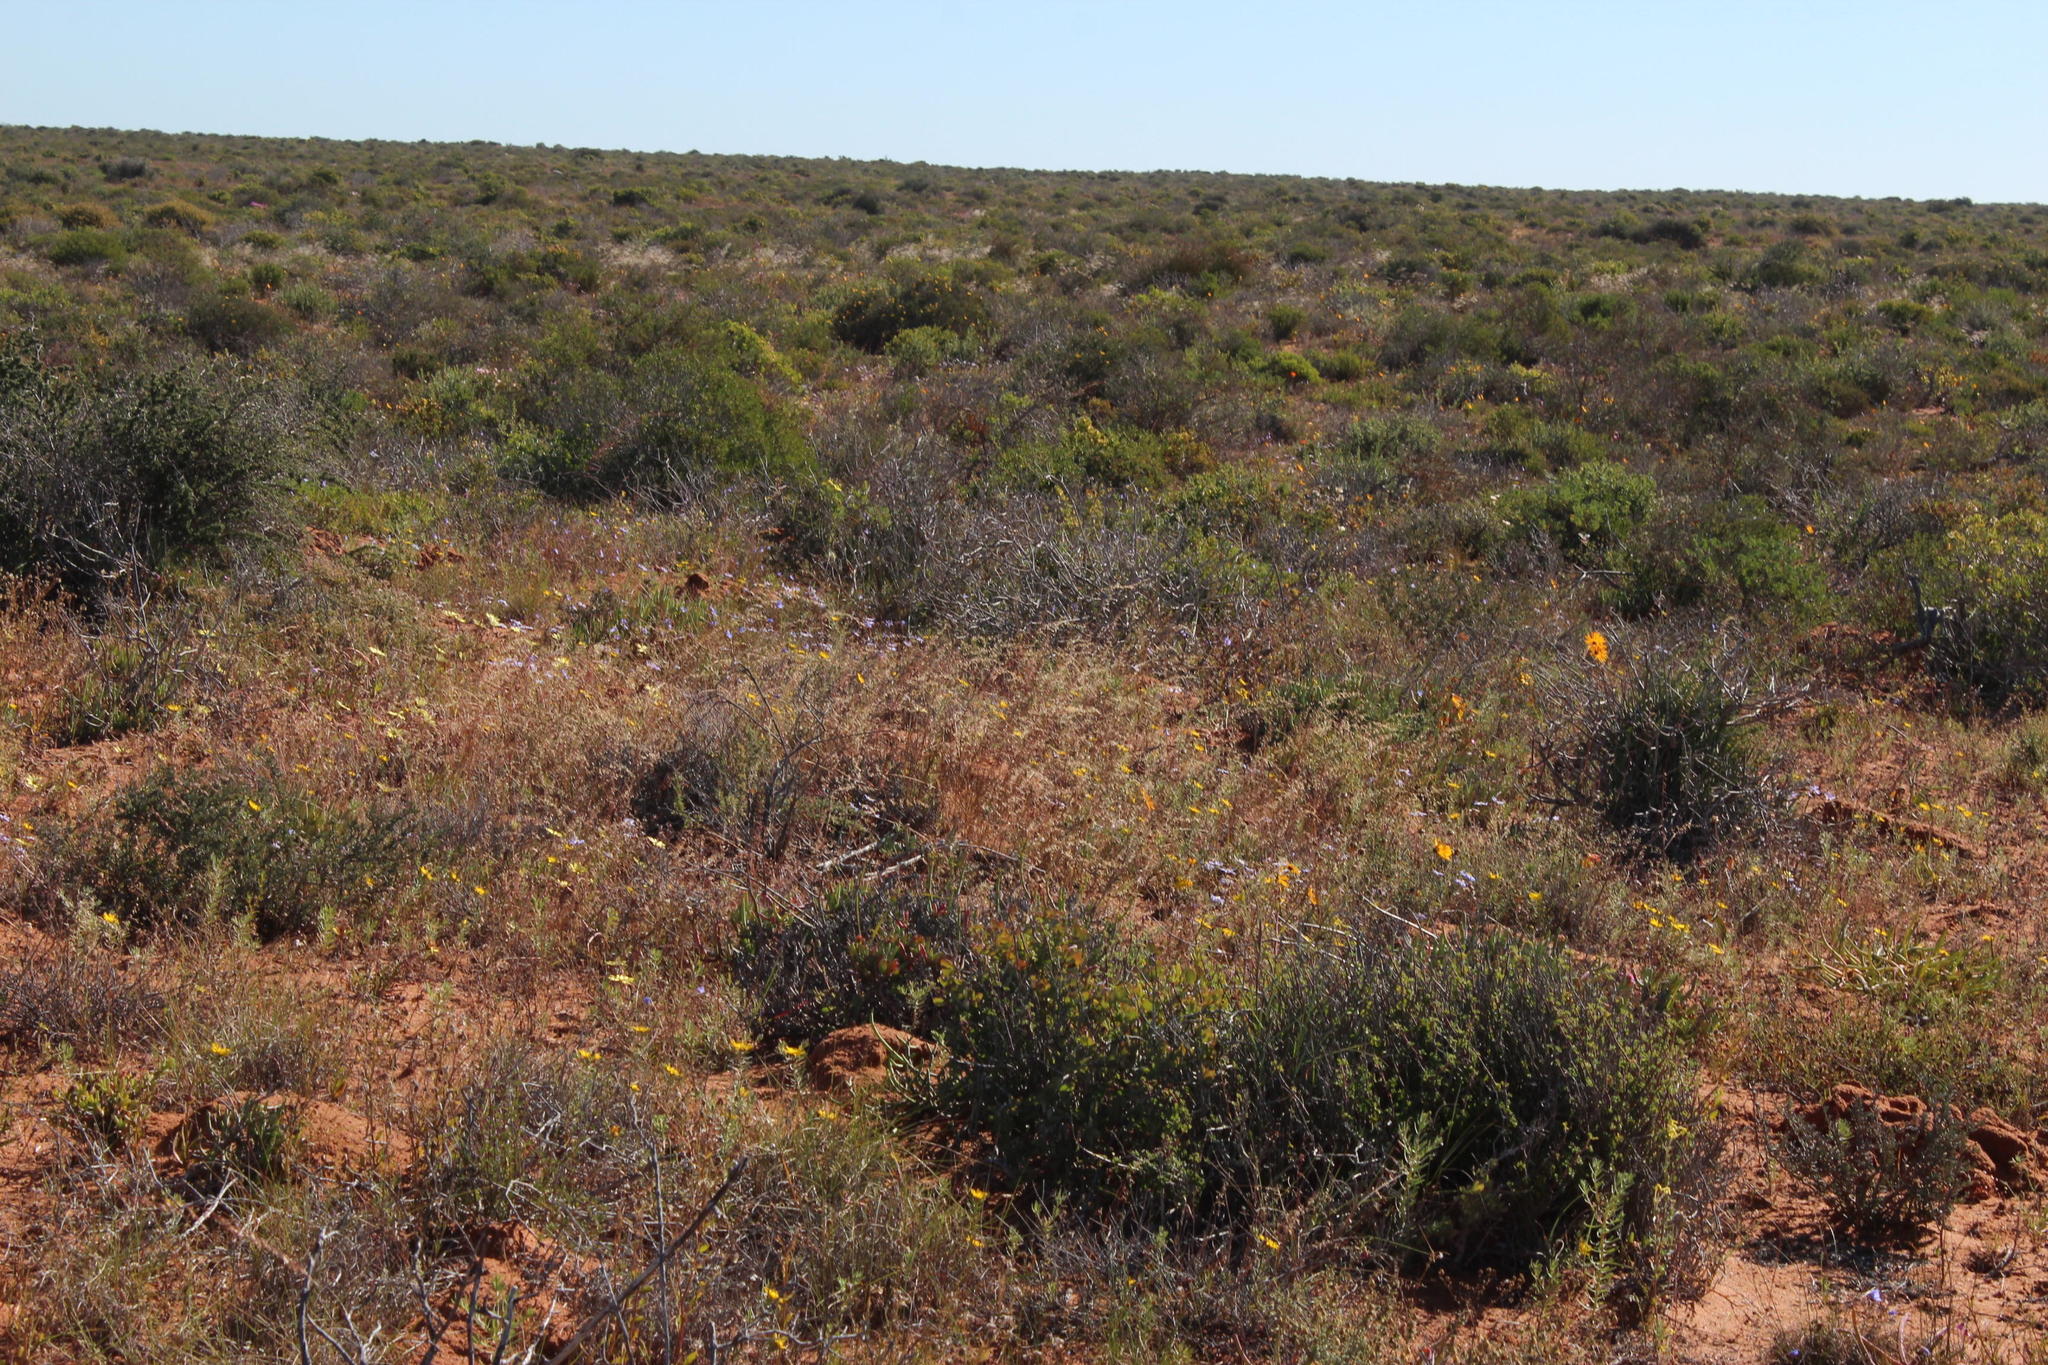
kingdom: Plantae
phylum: Tracheophyta
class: Liliopsida
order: Poales
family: Poaceae
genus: Ehrharta
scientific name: Ehrharta calycina
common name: Perennial veldtgrass
